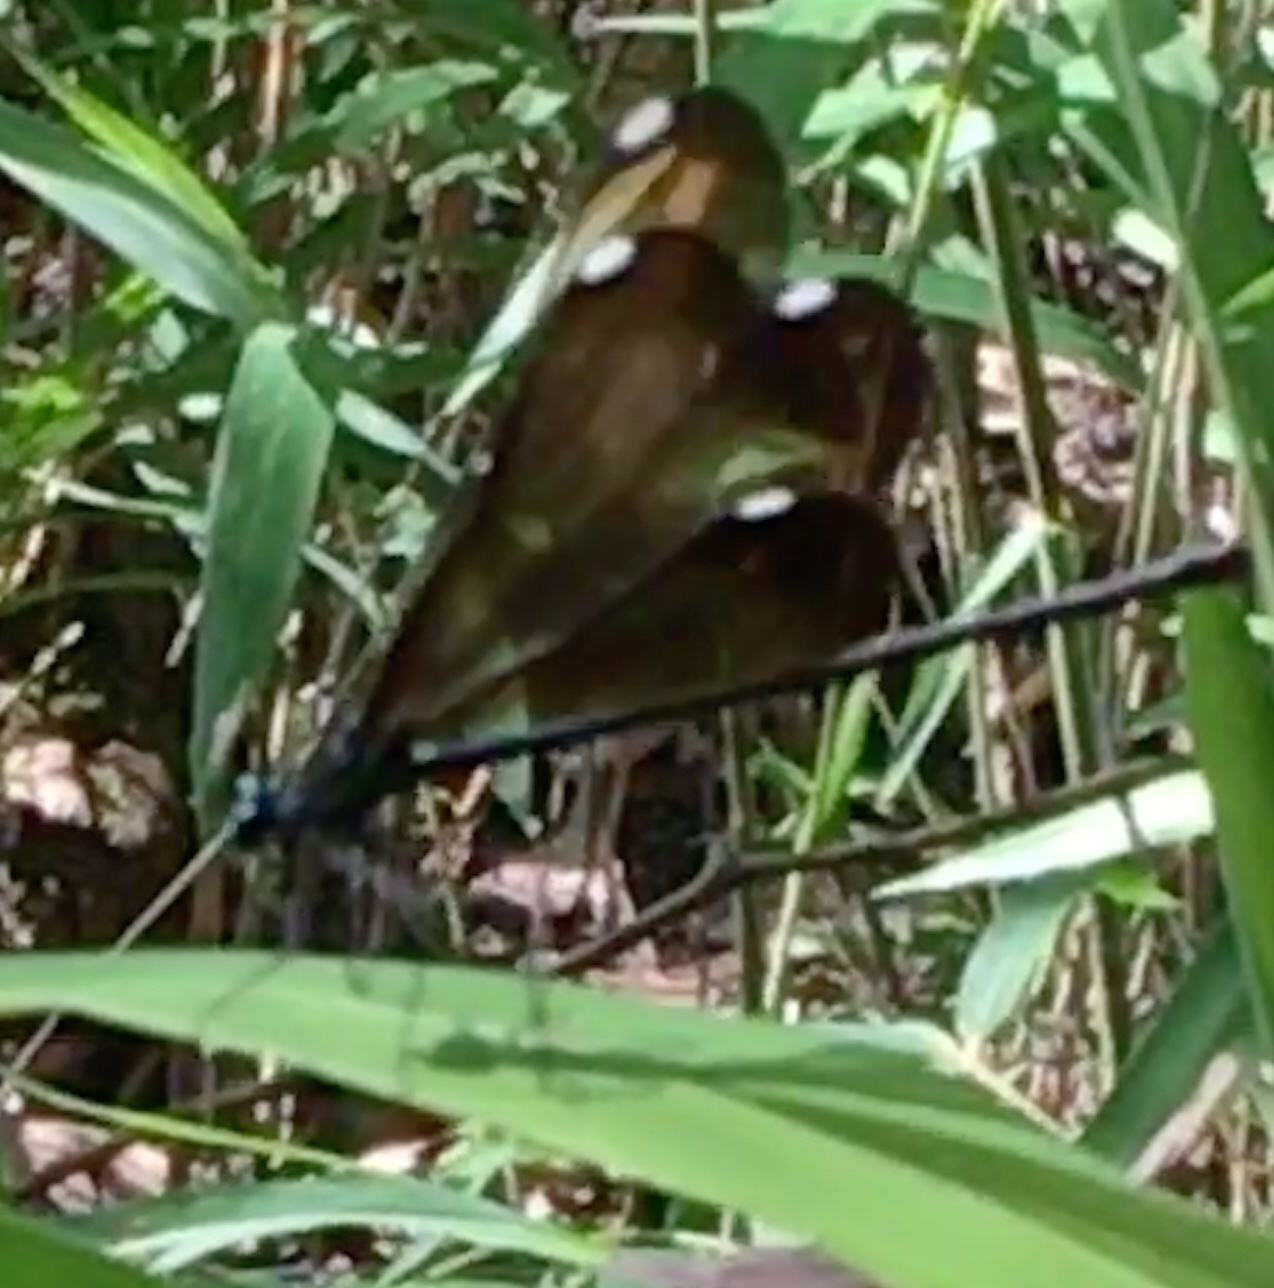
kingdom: Animalia
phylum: Arthropoda
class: Insecta
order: Odonata
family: Calopterygidae
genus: Calopteryx
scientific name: Calopteryx maculata
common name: Ebony jewelwing
